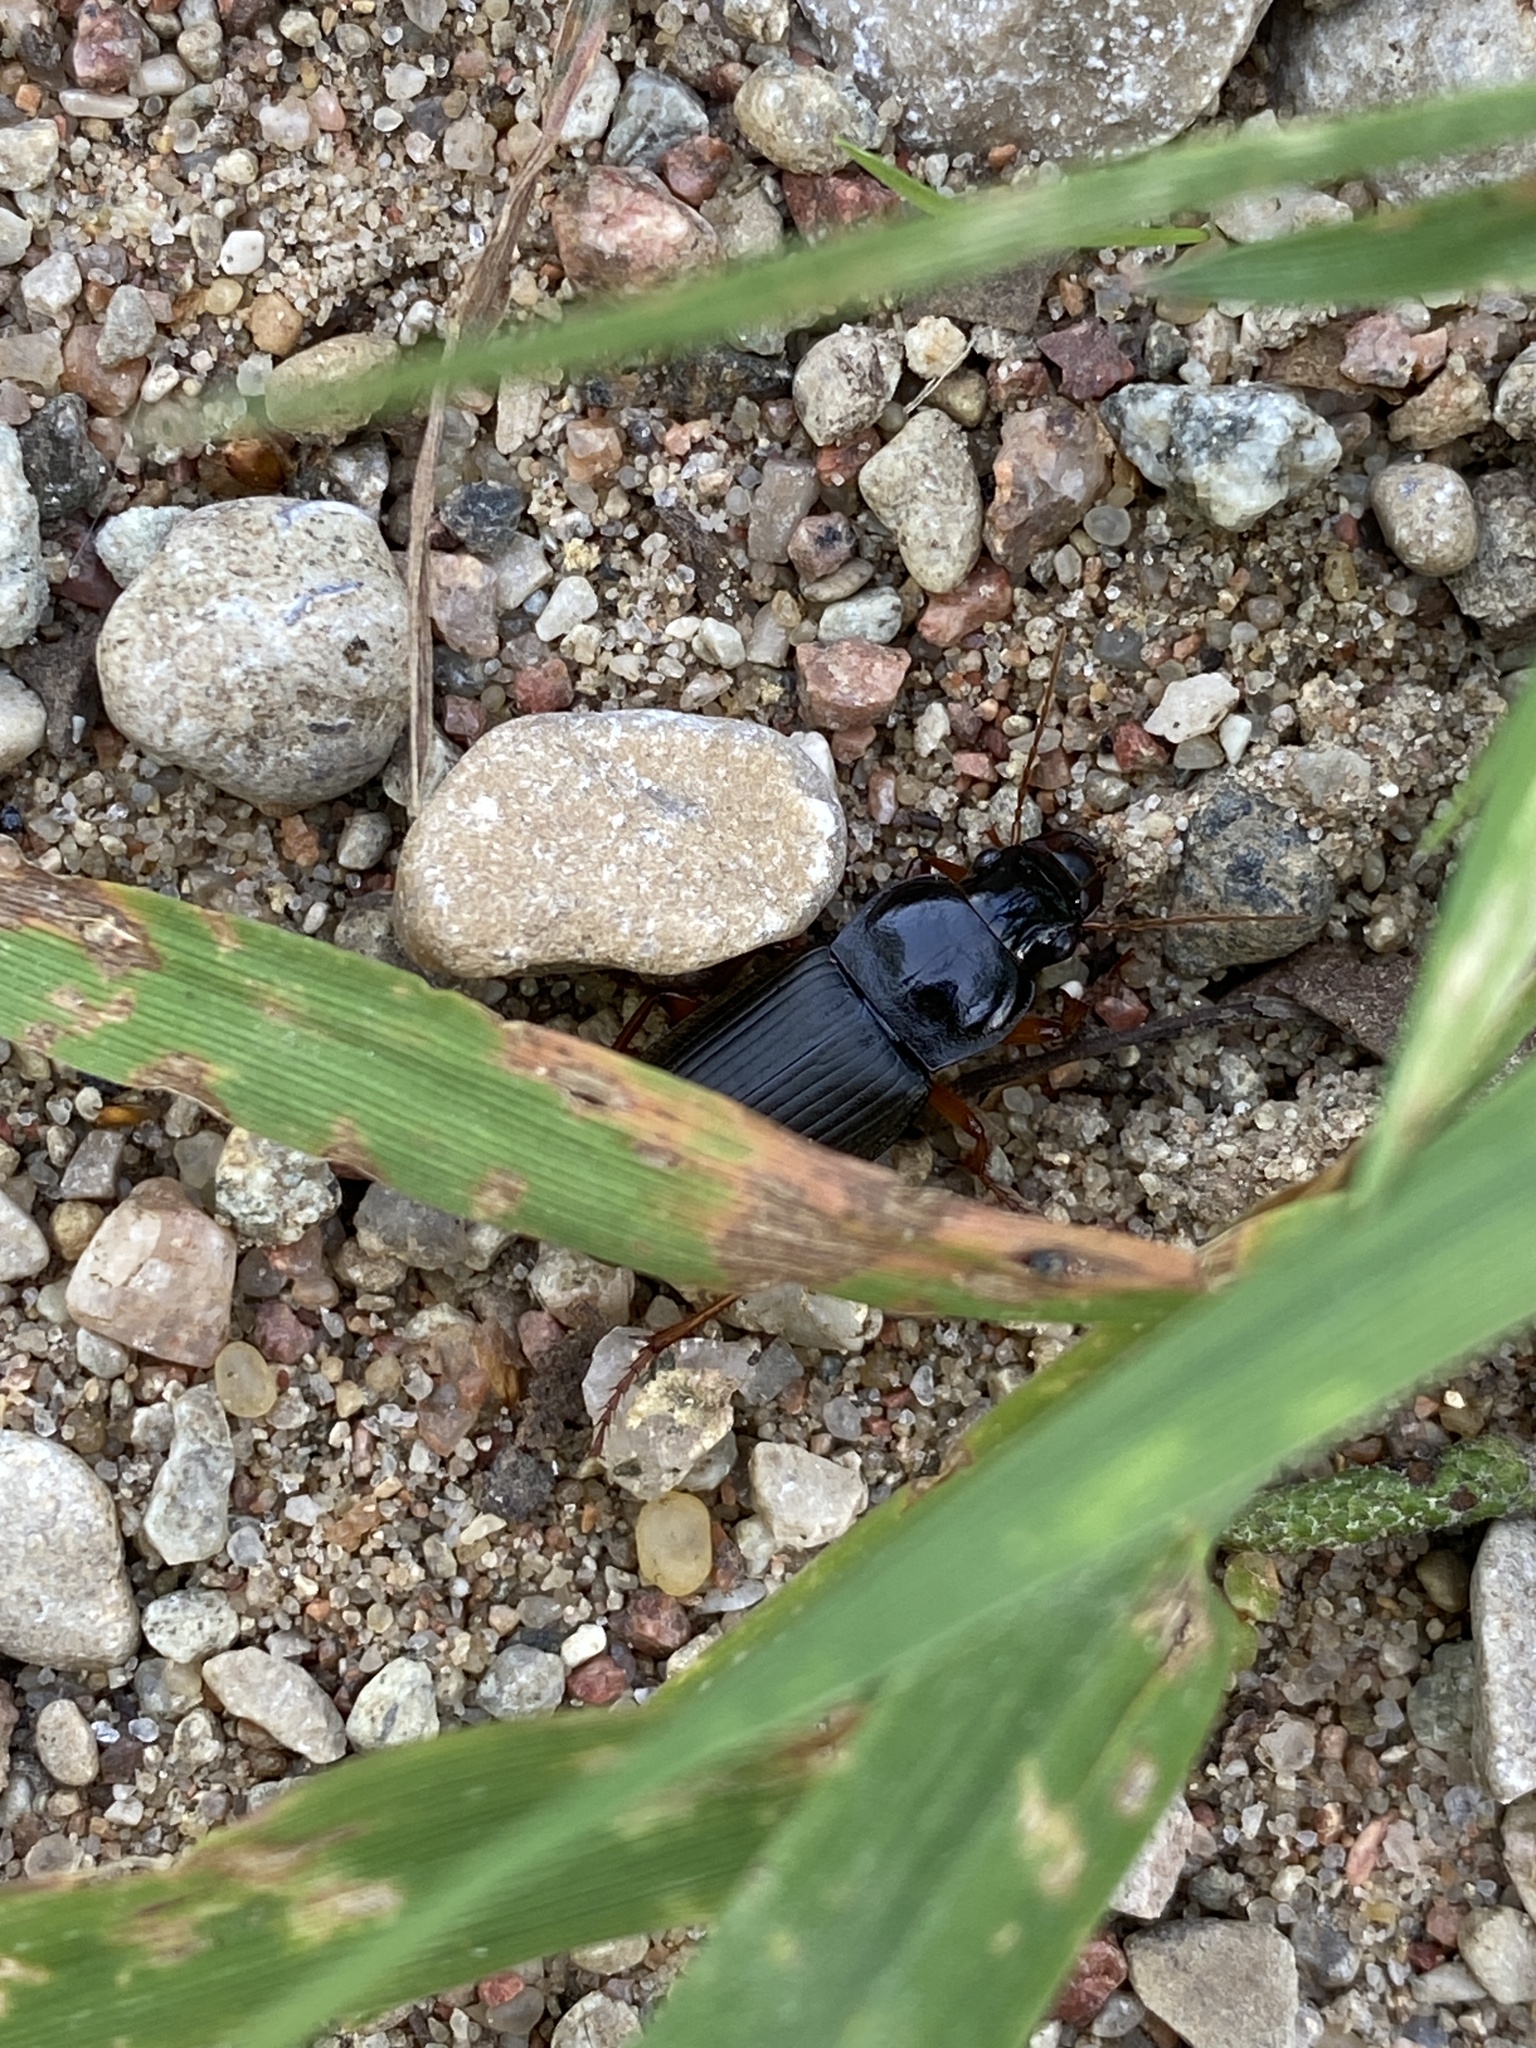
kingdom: Animalia
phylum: Arthropoda
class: Insecta
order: Coleoptera
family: Carabidae
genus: Harpalus
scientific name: Harpalus rufipes
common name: Strawberry harp ground beetle
